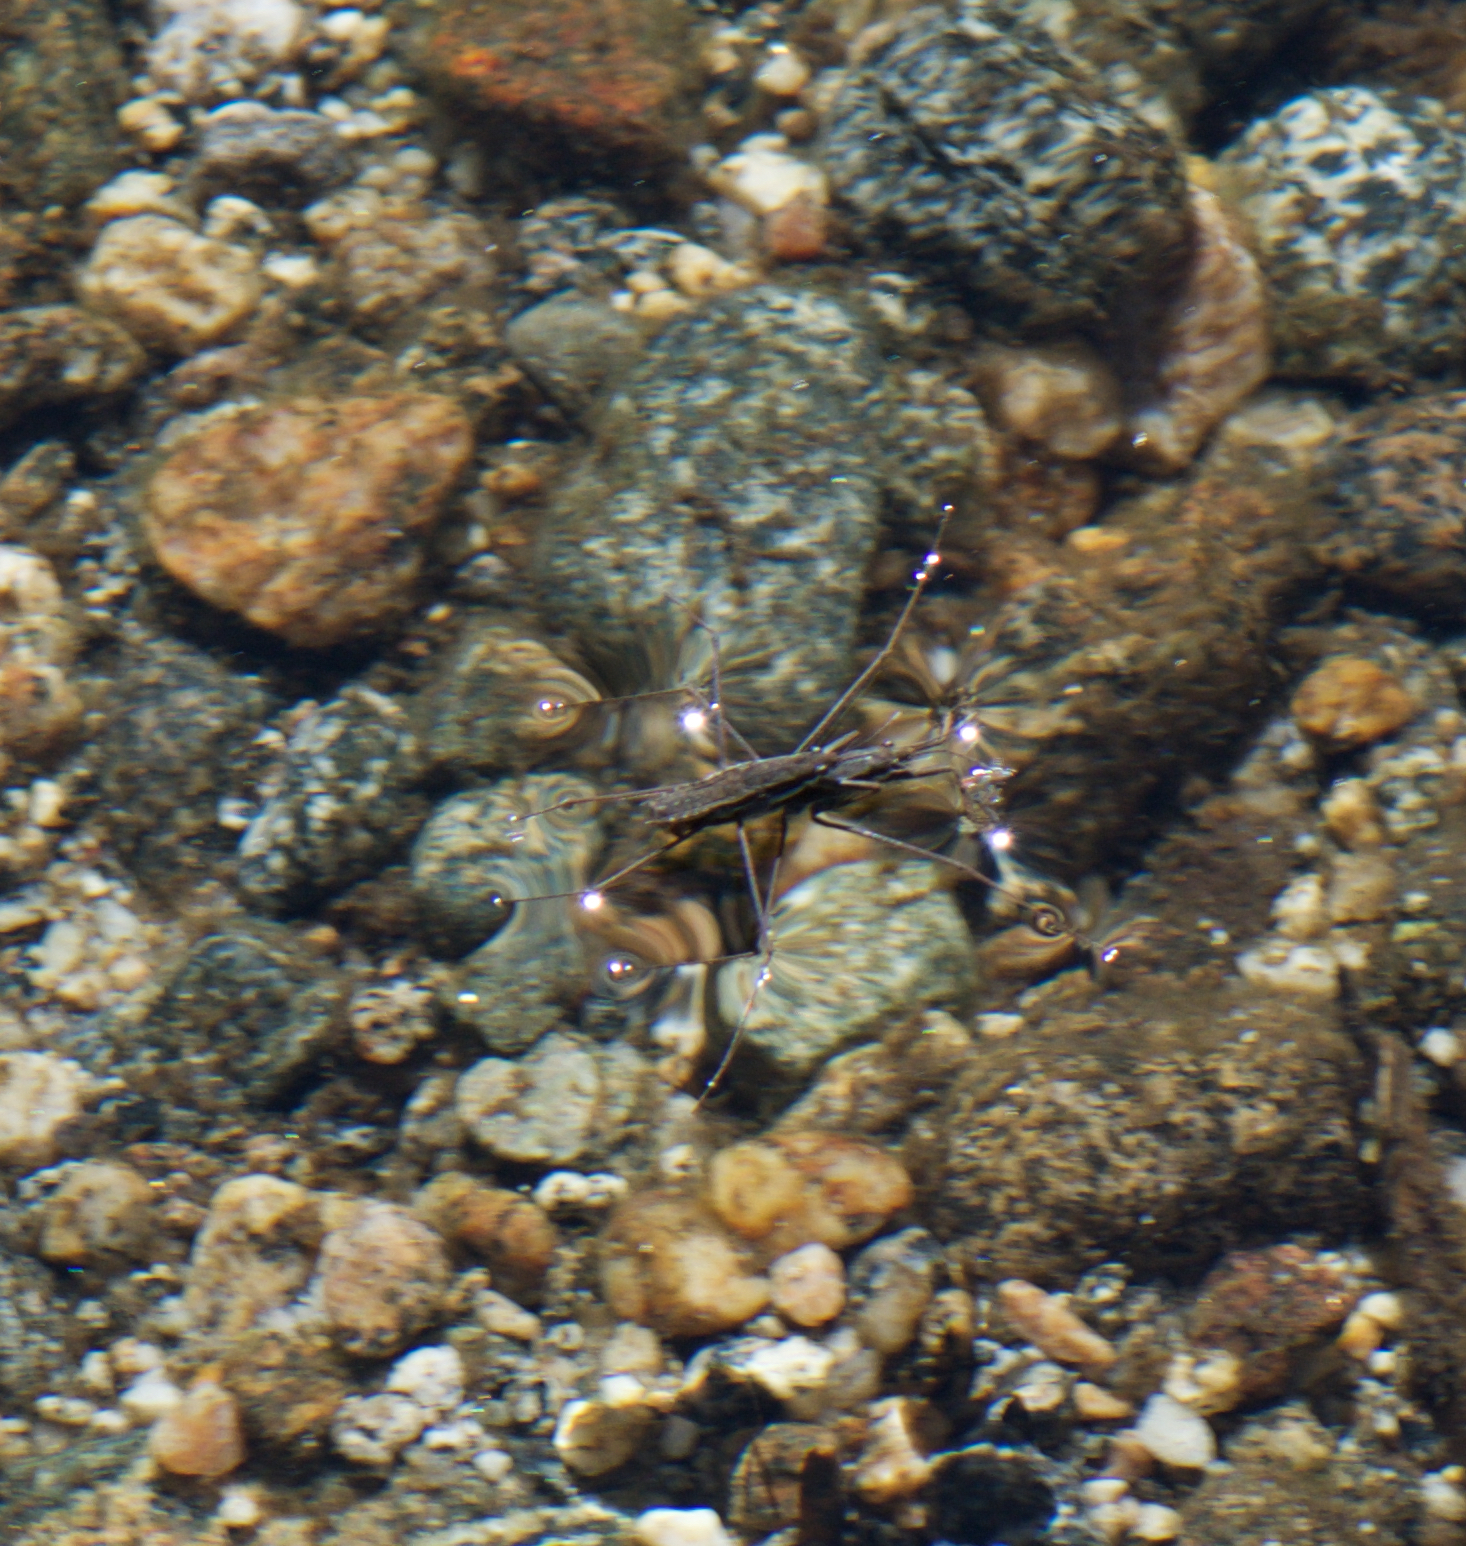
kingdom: Animalia
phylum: Arthropoda
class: Insecta
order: Hemiptera
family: Gerridae
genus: Aquarius
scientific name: Aquarius remigis
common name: Common water strider
